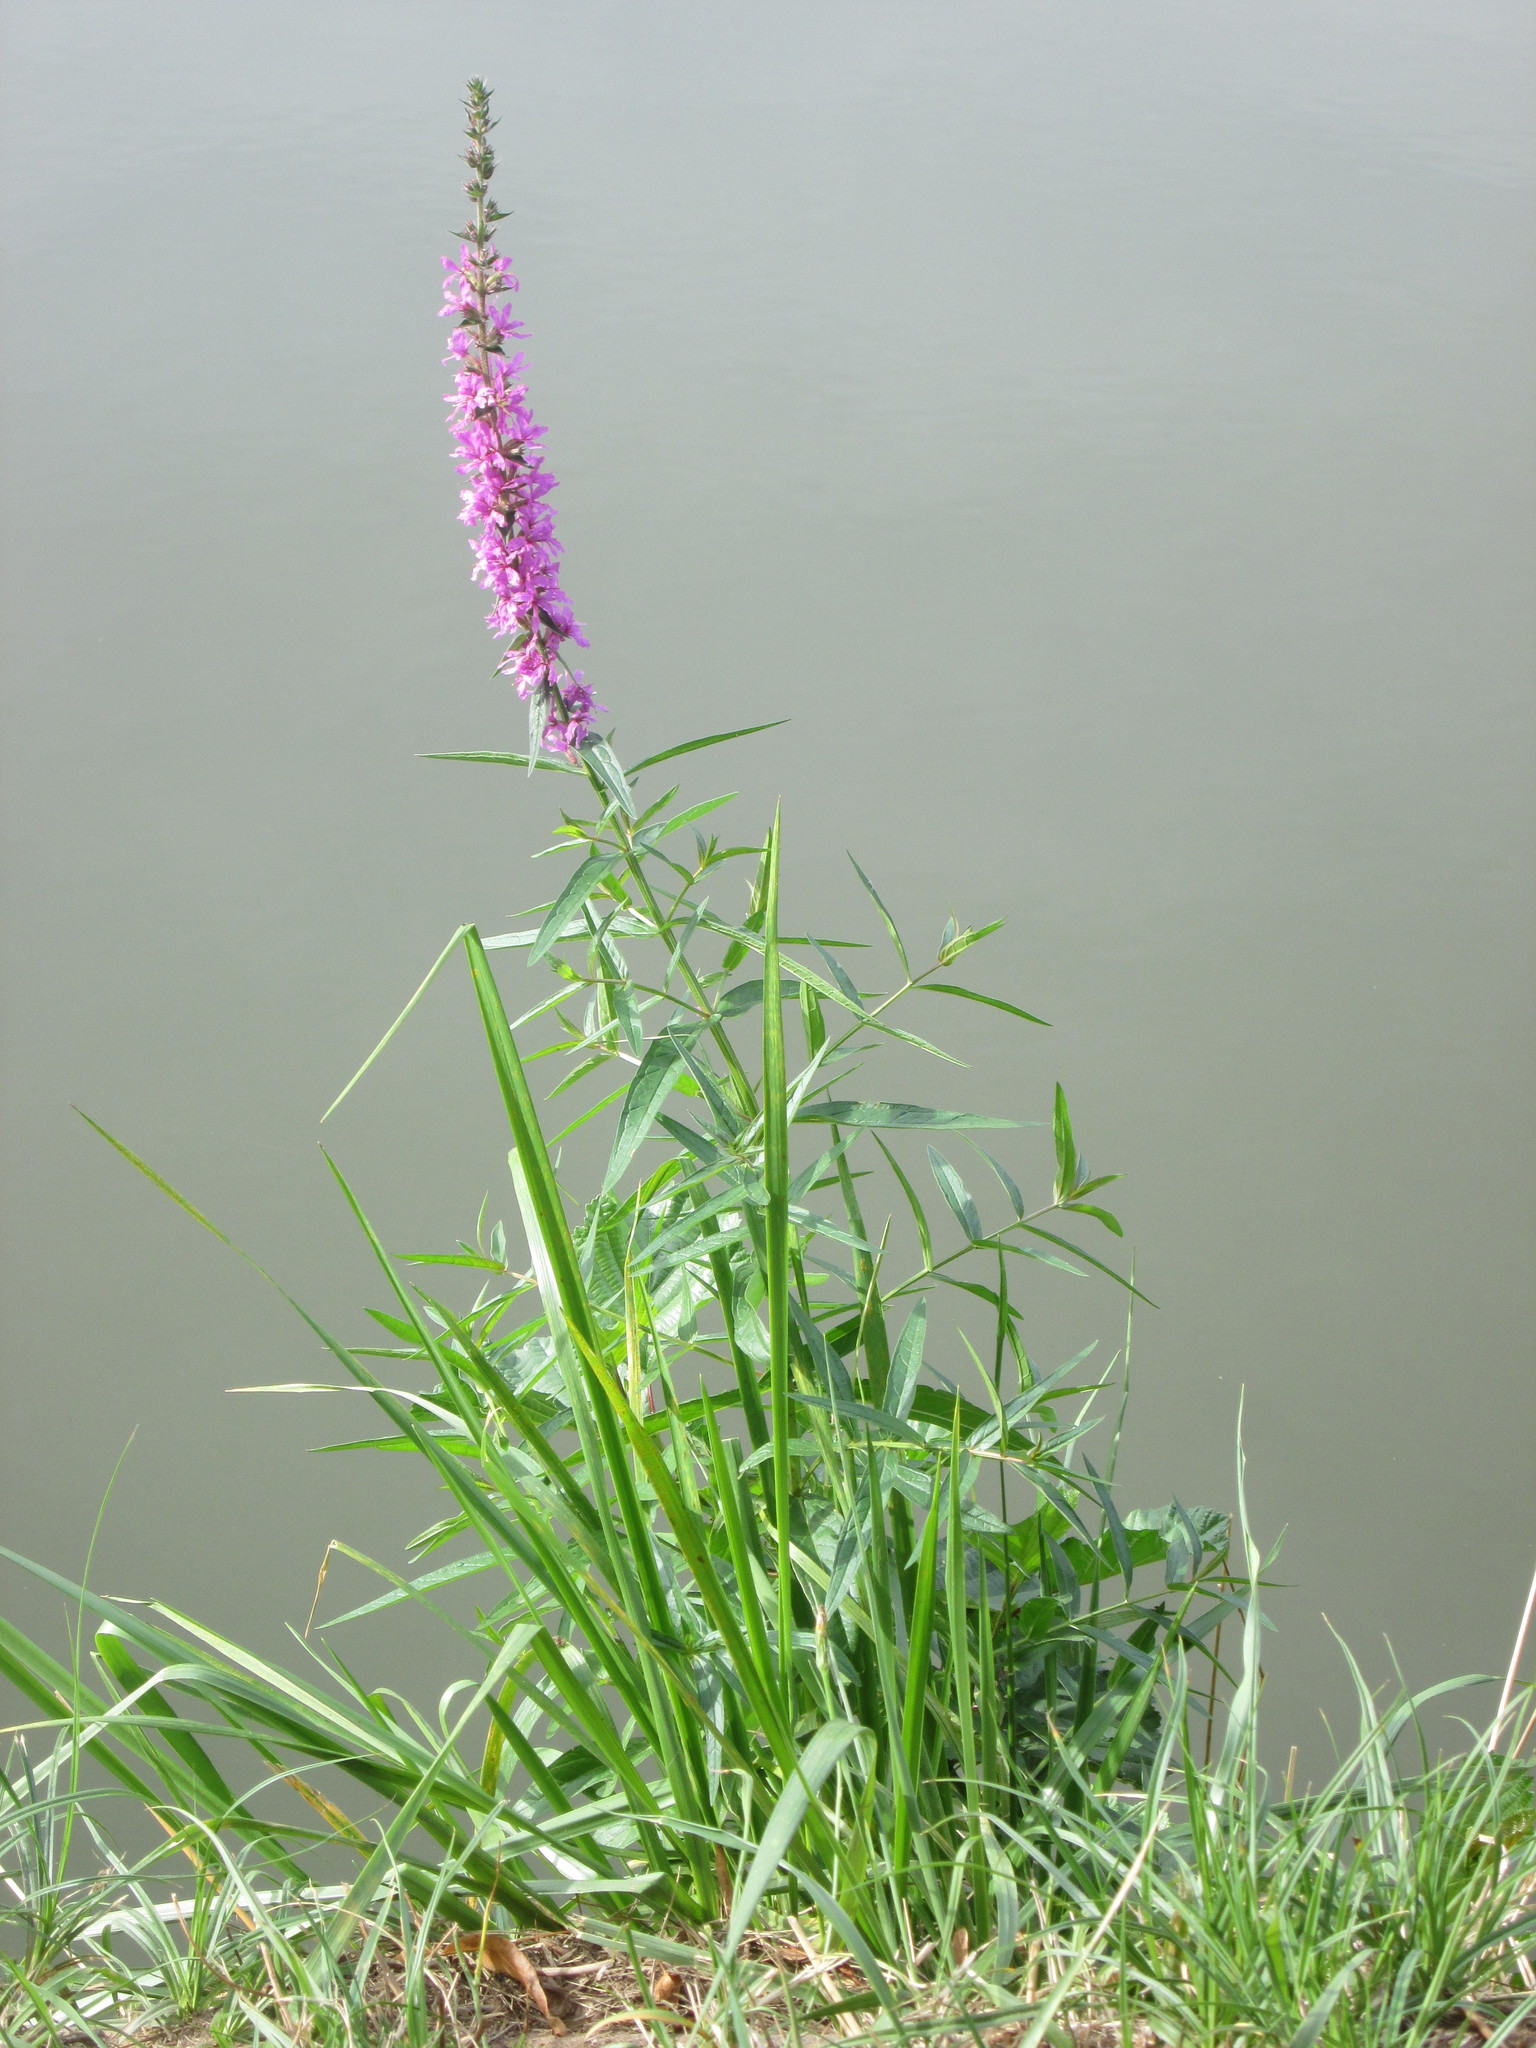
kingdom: Plantae
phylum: Tracheophyta
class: Magnoliopsida
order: Myrtales
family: Lythraceae
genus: Lythrum
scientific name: Lythrum salicaria
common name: Purple loosestrife
